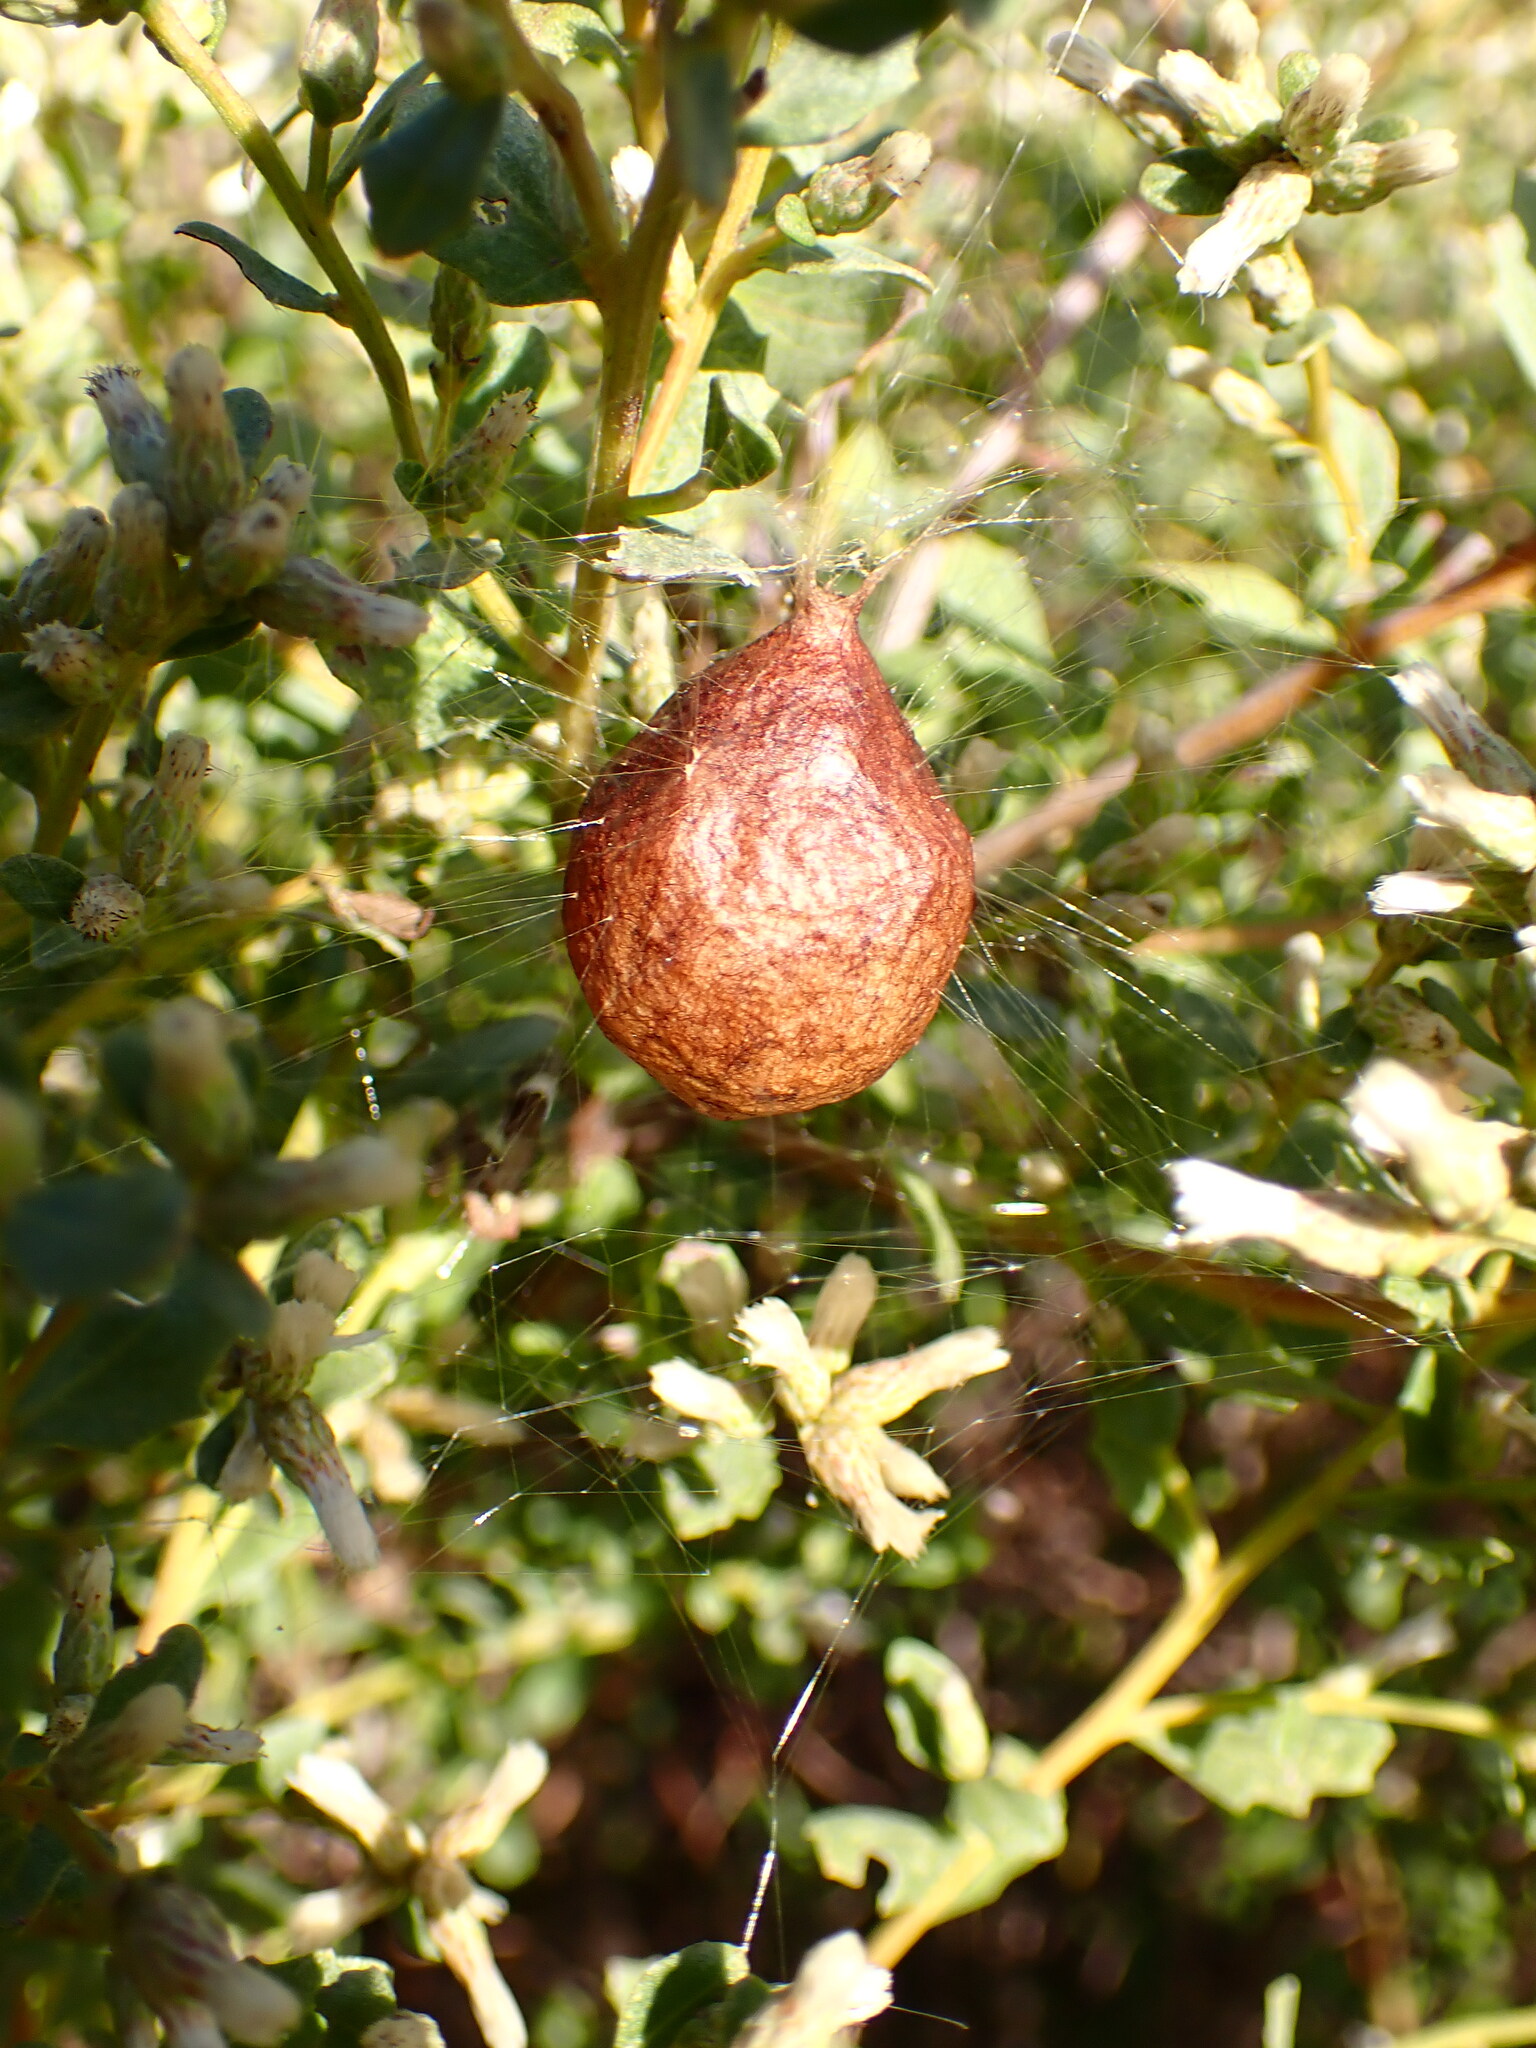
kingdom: Animalia
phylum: Arthropoda
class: Arachnida
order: Araneae
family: Araneidae
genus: Argiope
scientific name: Argiope aurantia
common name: Orb weavers
